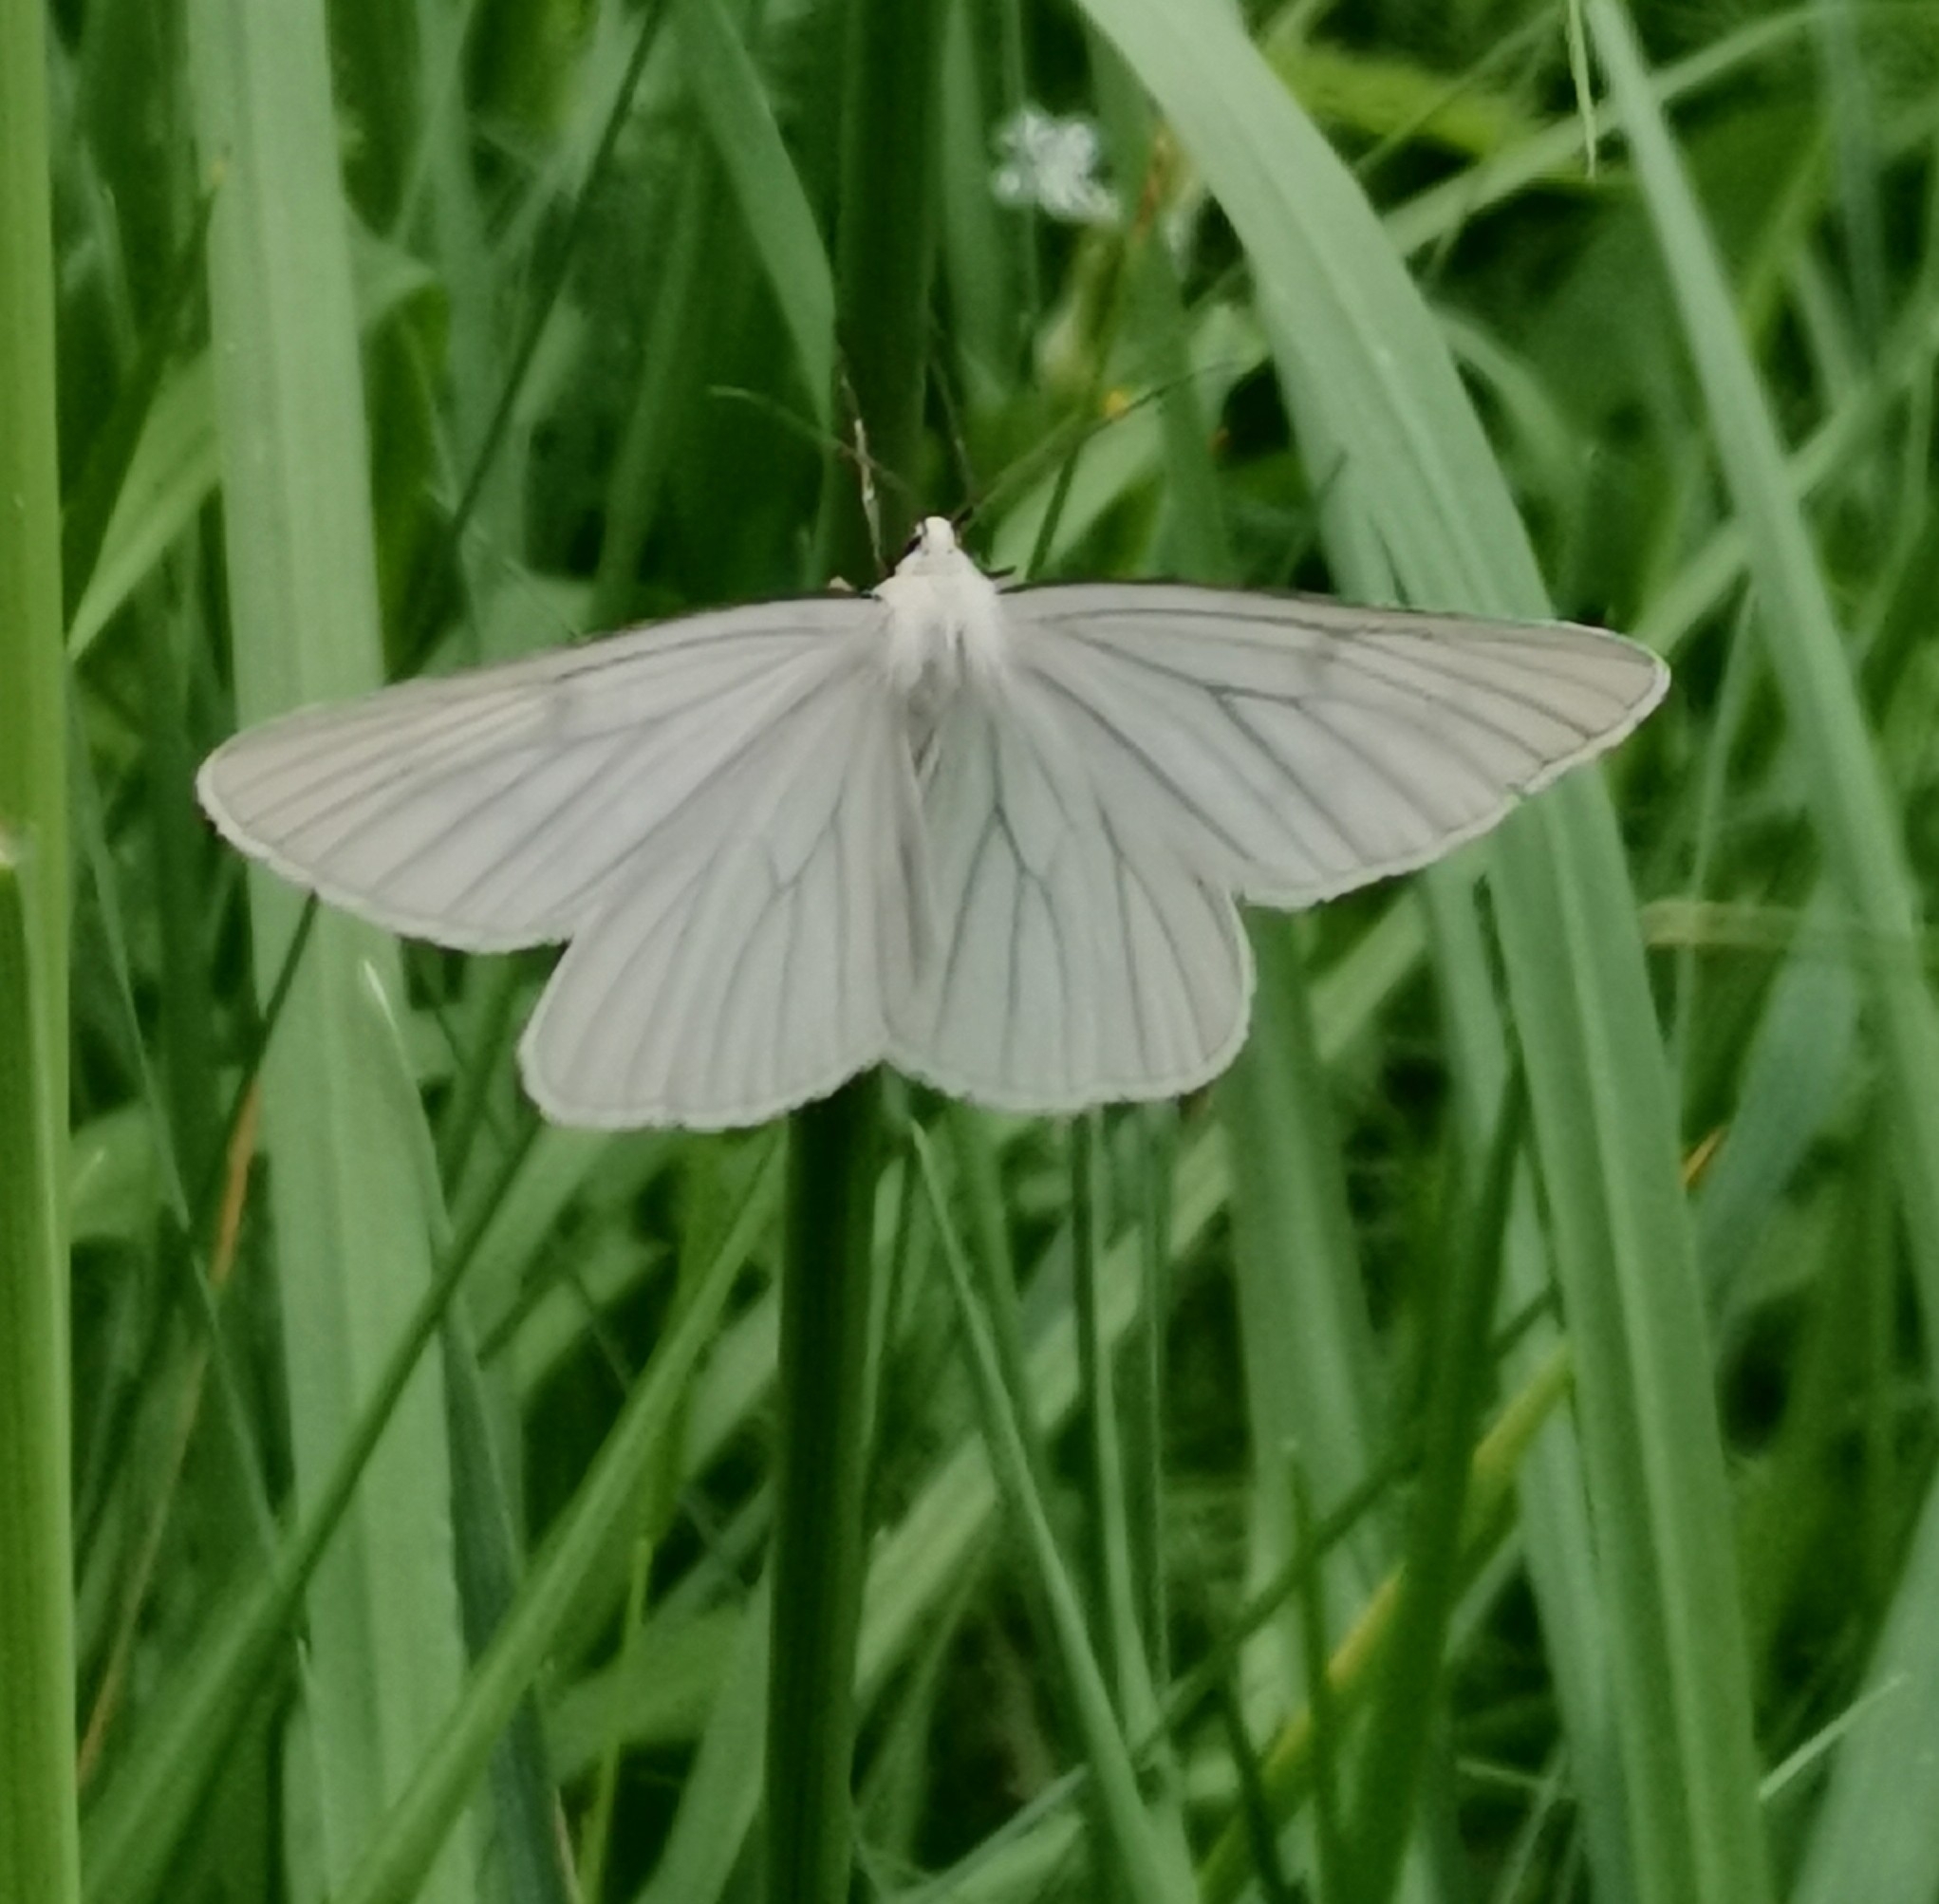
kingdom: Animalia
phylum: Arthropoda
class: Insecta
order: Lepidoptera
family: Geometridae
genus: Siona
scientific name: Siona lineata
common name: Black-veined moth
